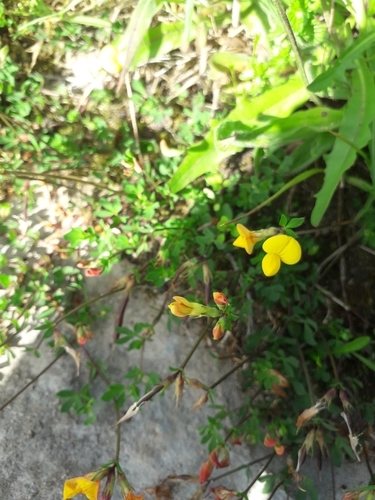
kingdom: Plantae
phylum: Tracheophyta
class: Magnoliopsida
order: Fabales
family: Fabaceae
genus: Lotus
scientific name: Lotus corniculatus
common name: Common bird's-foot-trefoil
